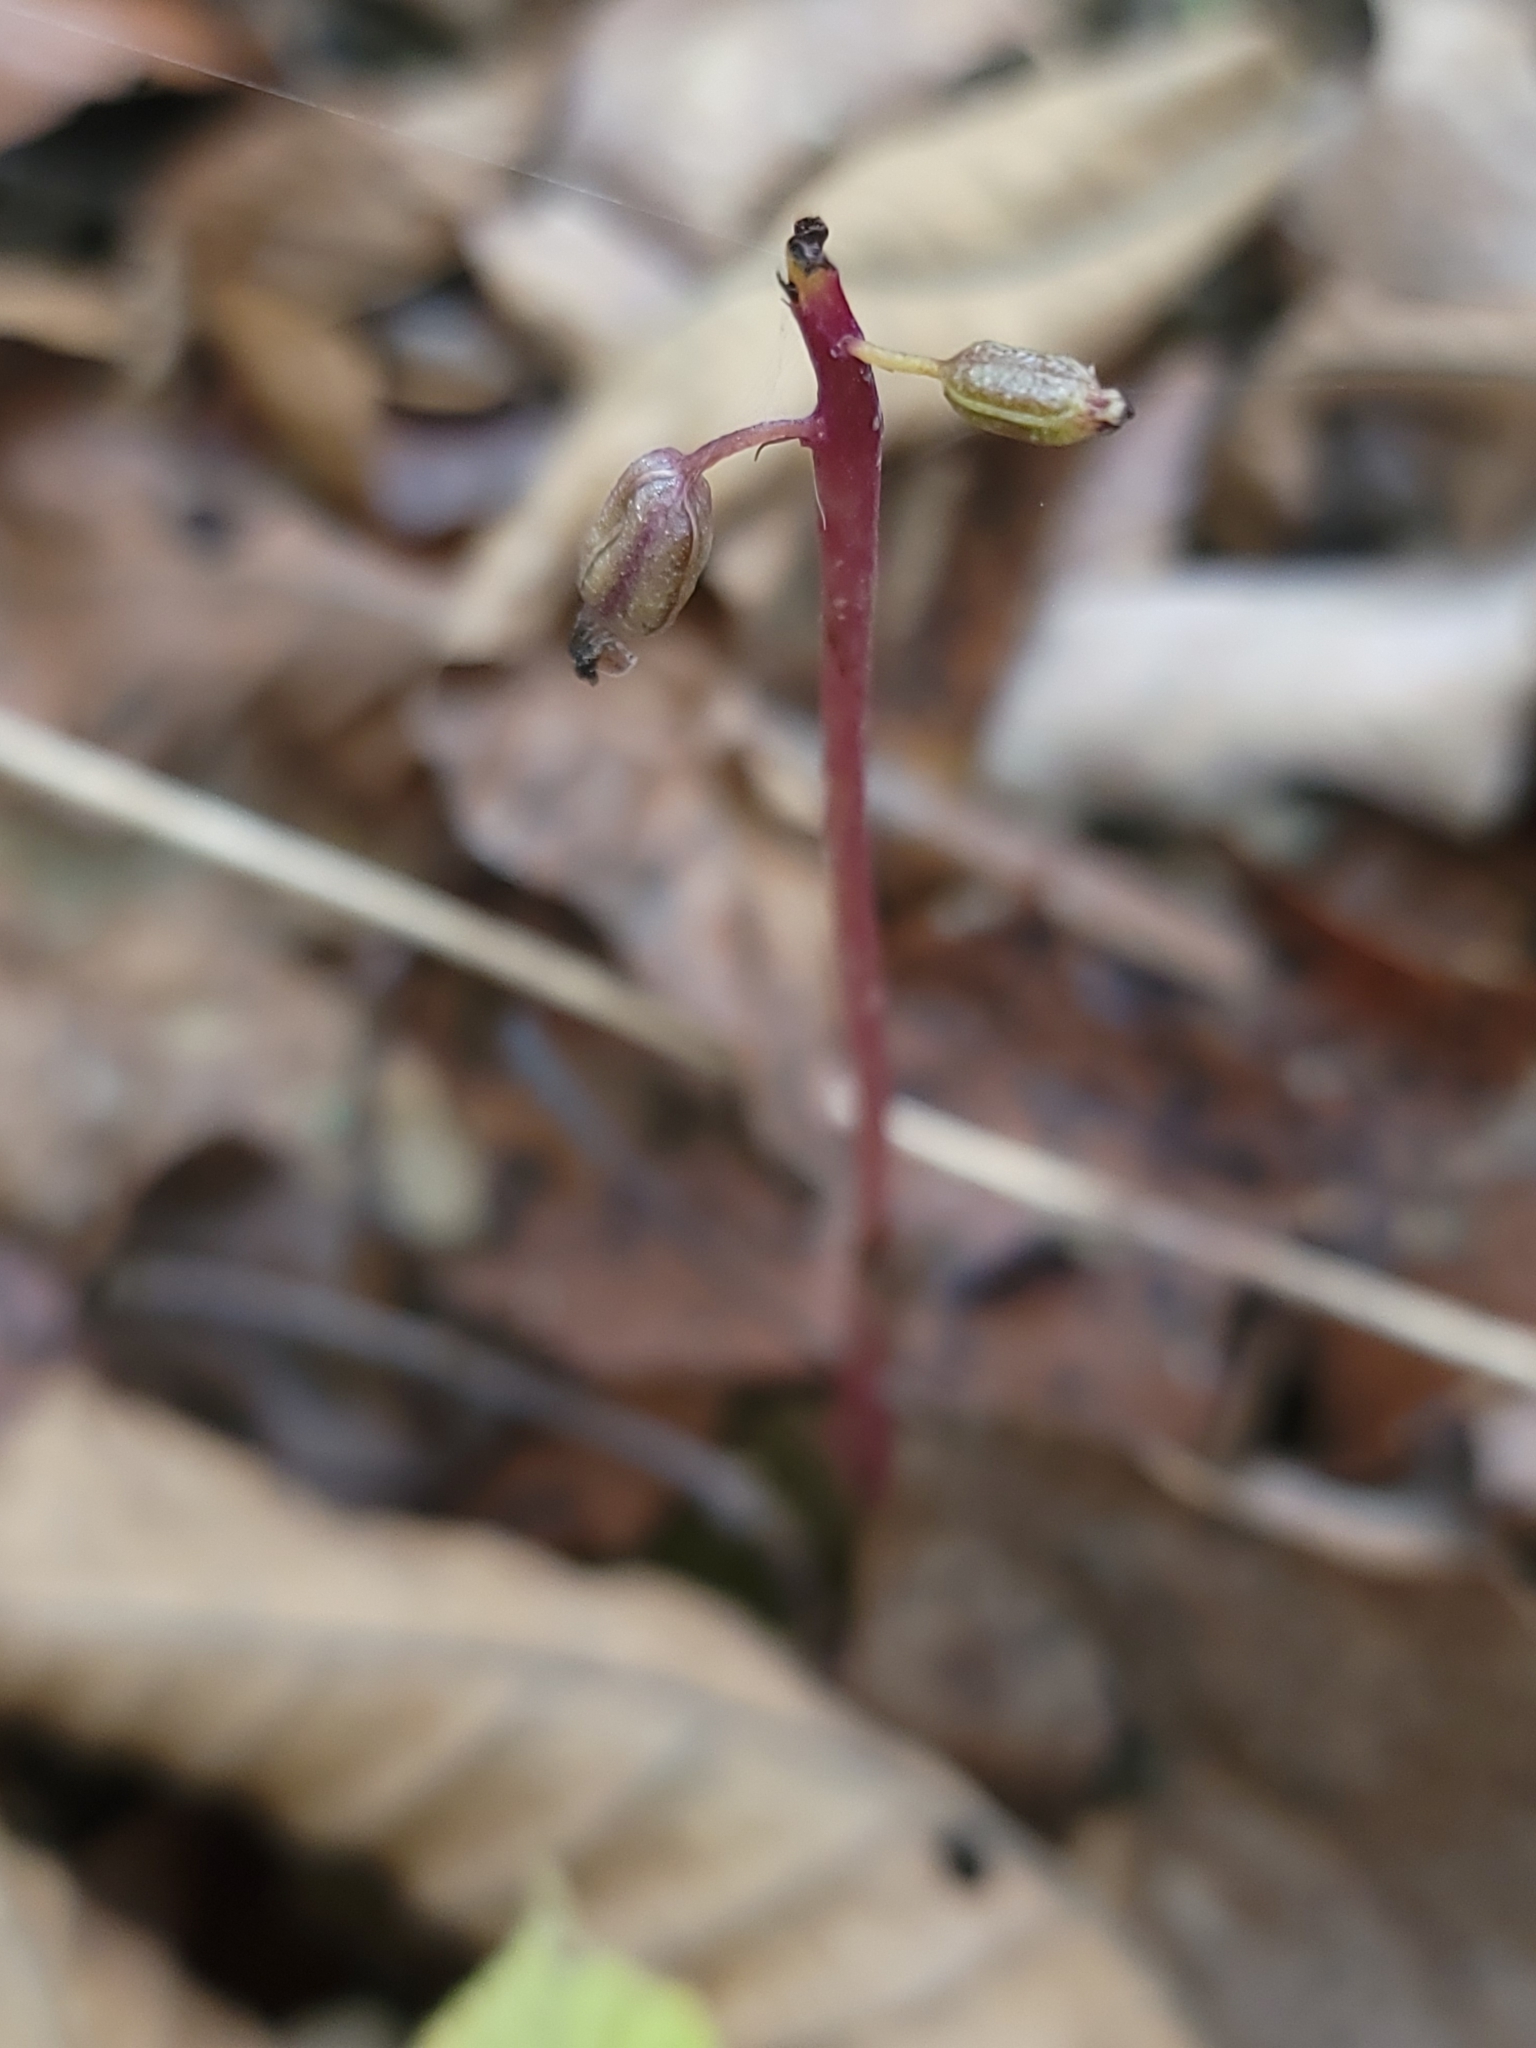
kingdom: Plantae
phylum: Tracheophyta
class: Liliopsida
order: Asparagales
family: Orchidaceae
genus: Corallorhiza
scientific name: Corallorhiza odontorhiza
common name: Autumn coralroot
